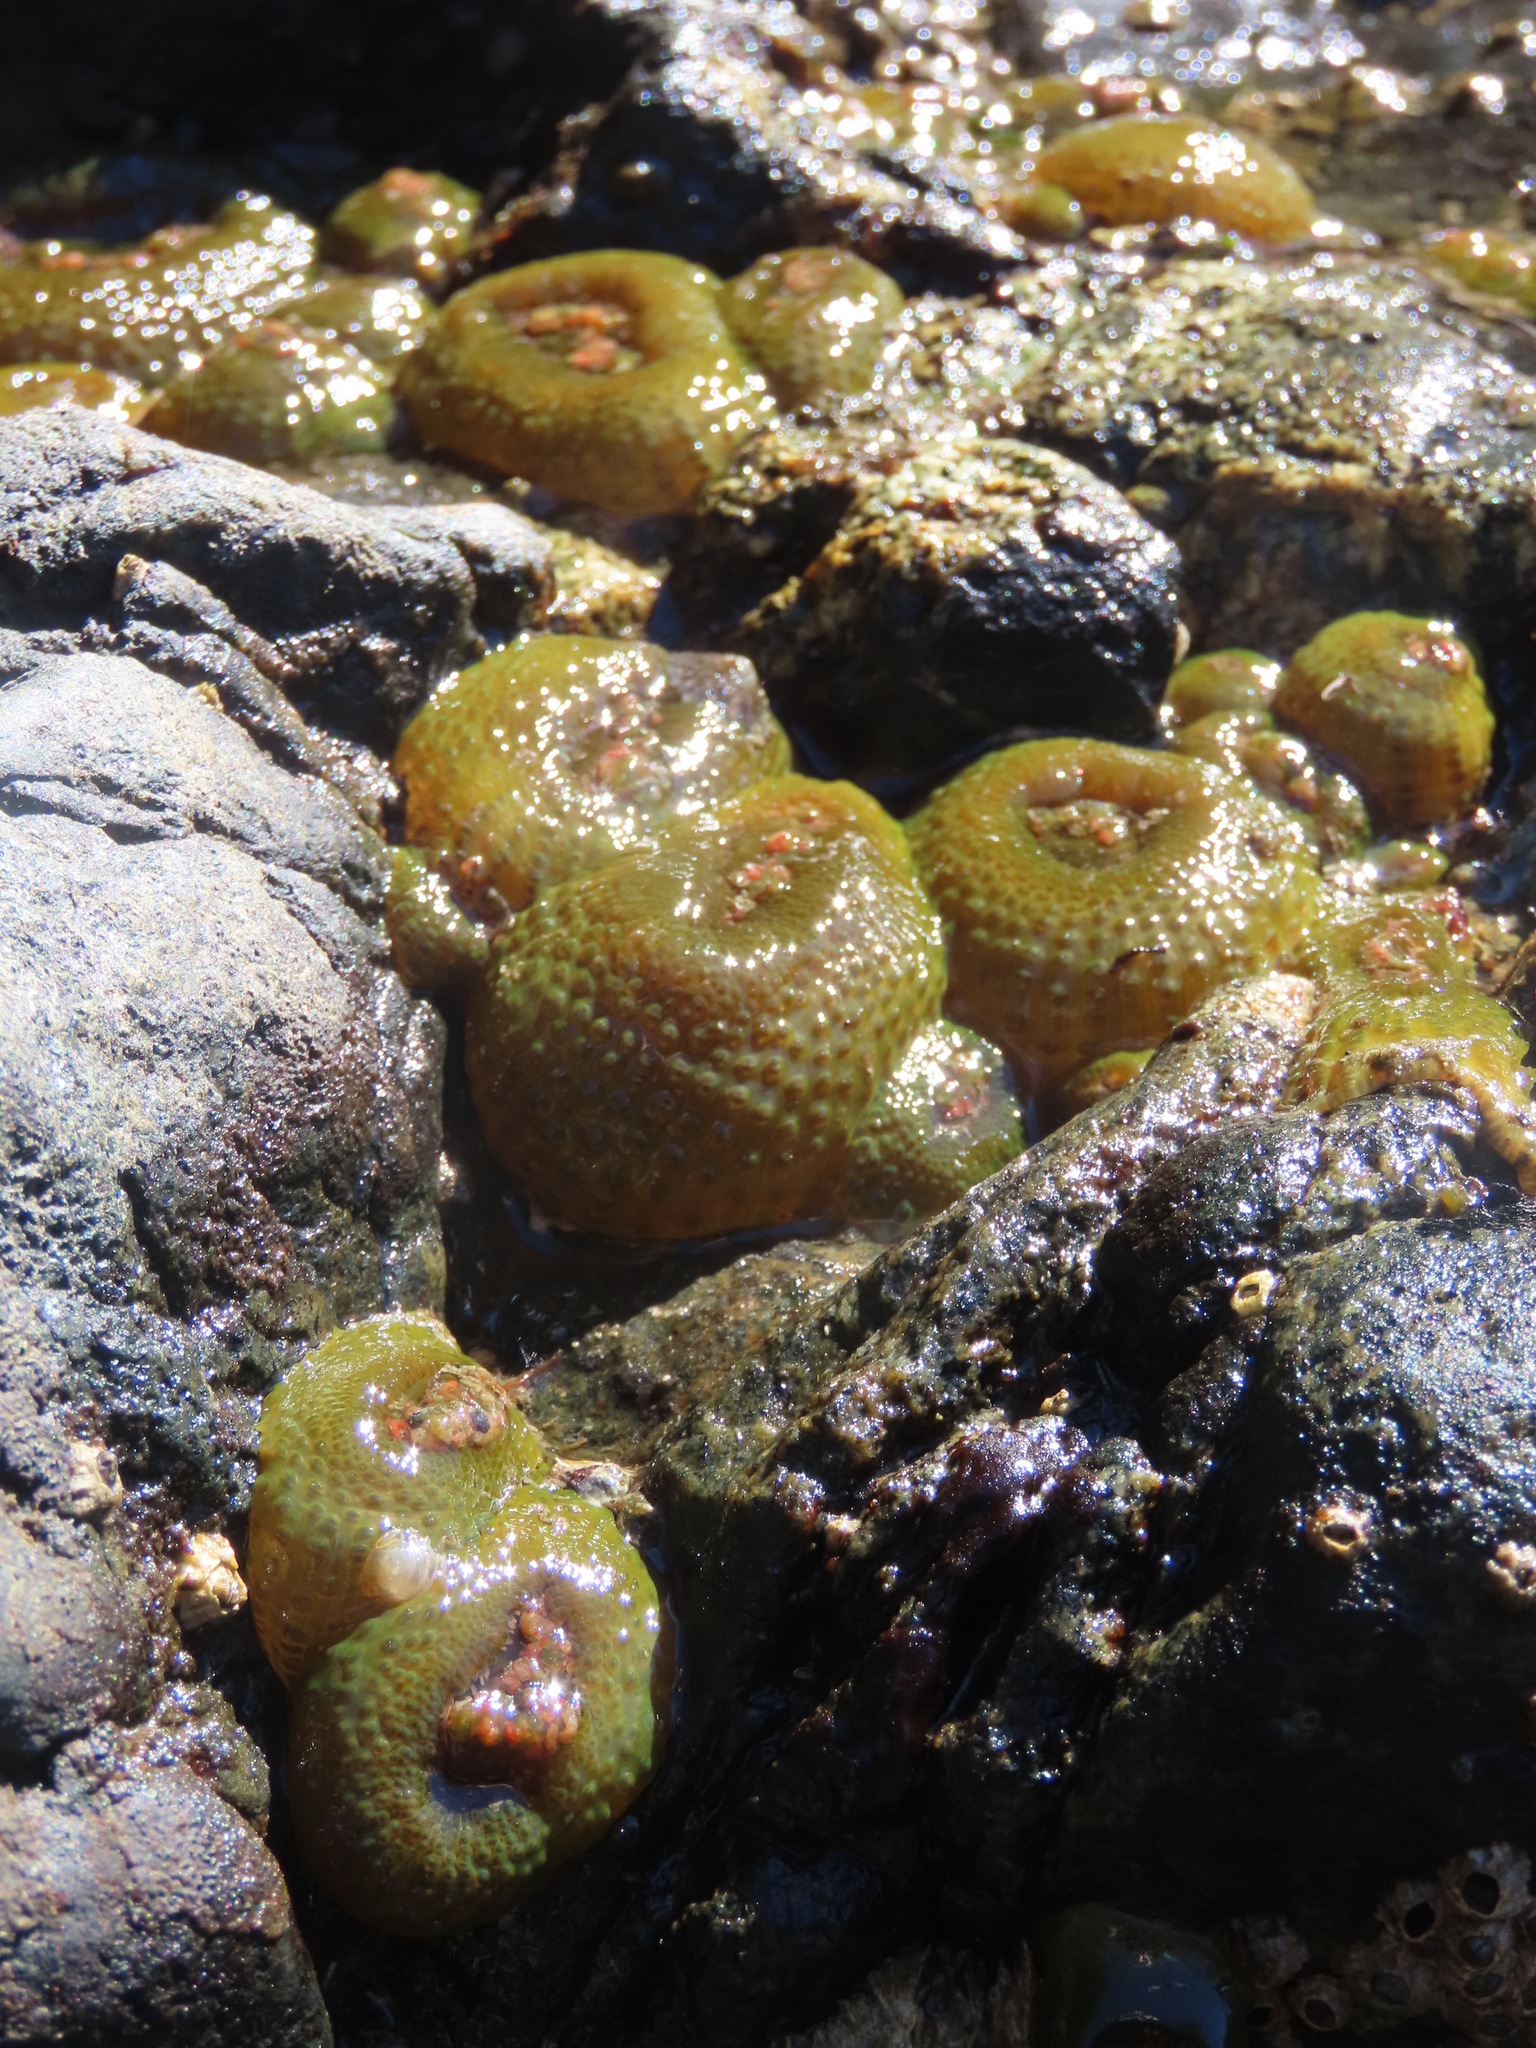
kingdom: Animalia
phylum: Cnidaria
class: Anthozoa
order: Actiniaria
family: Actiniidae
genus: Anthopleura
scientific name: Anthopleura elegantissima
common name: Clonal anemone
